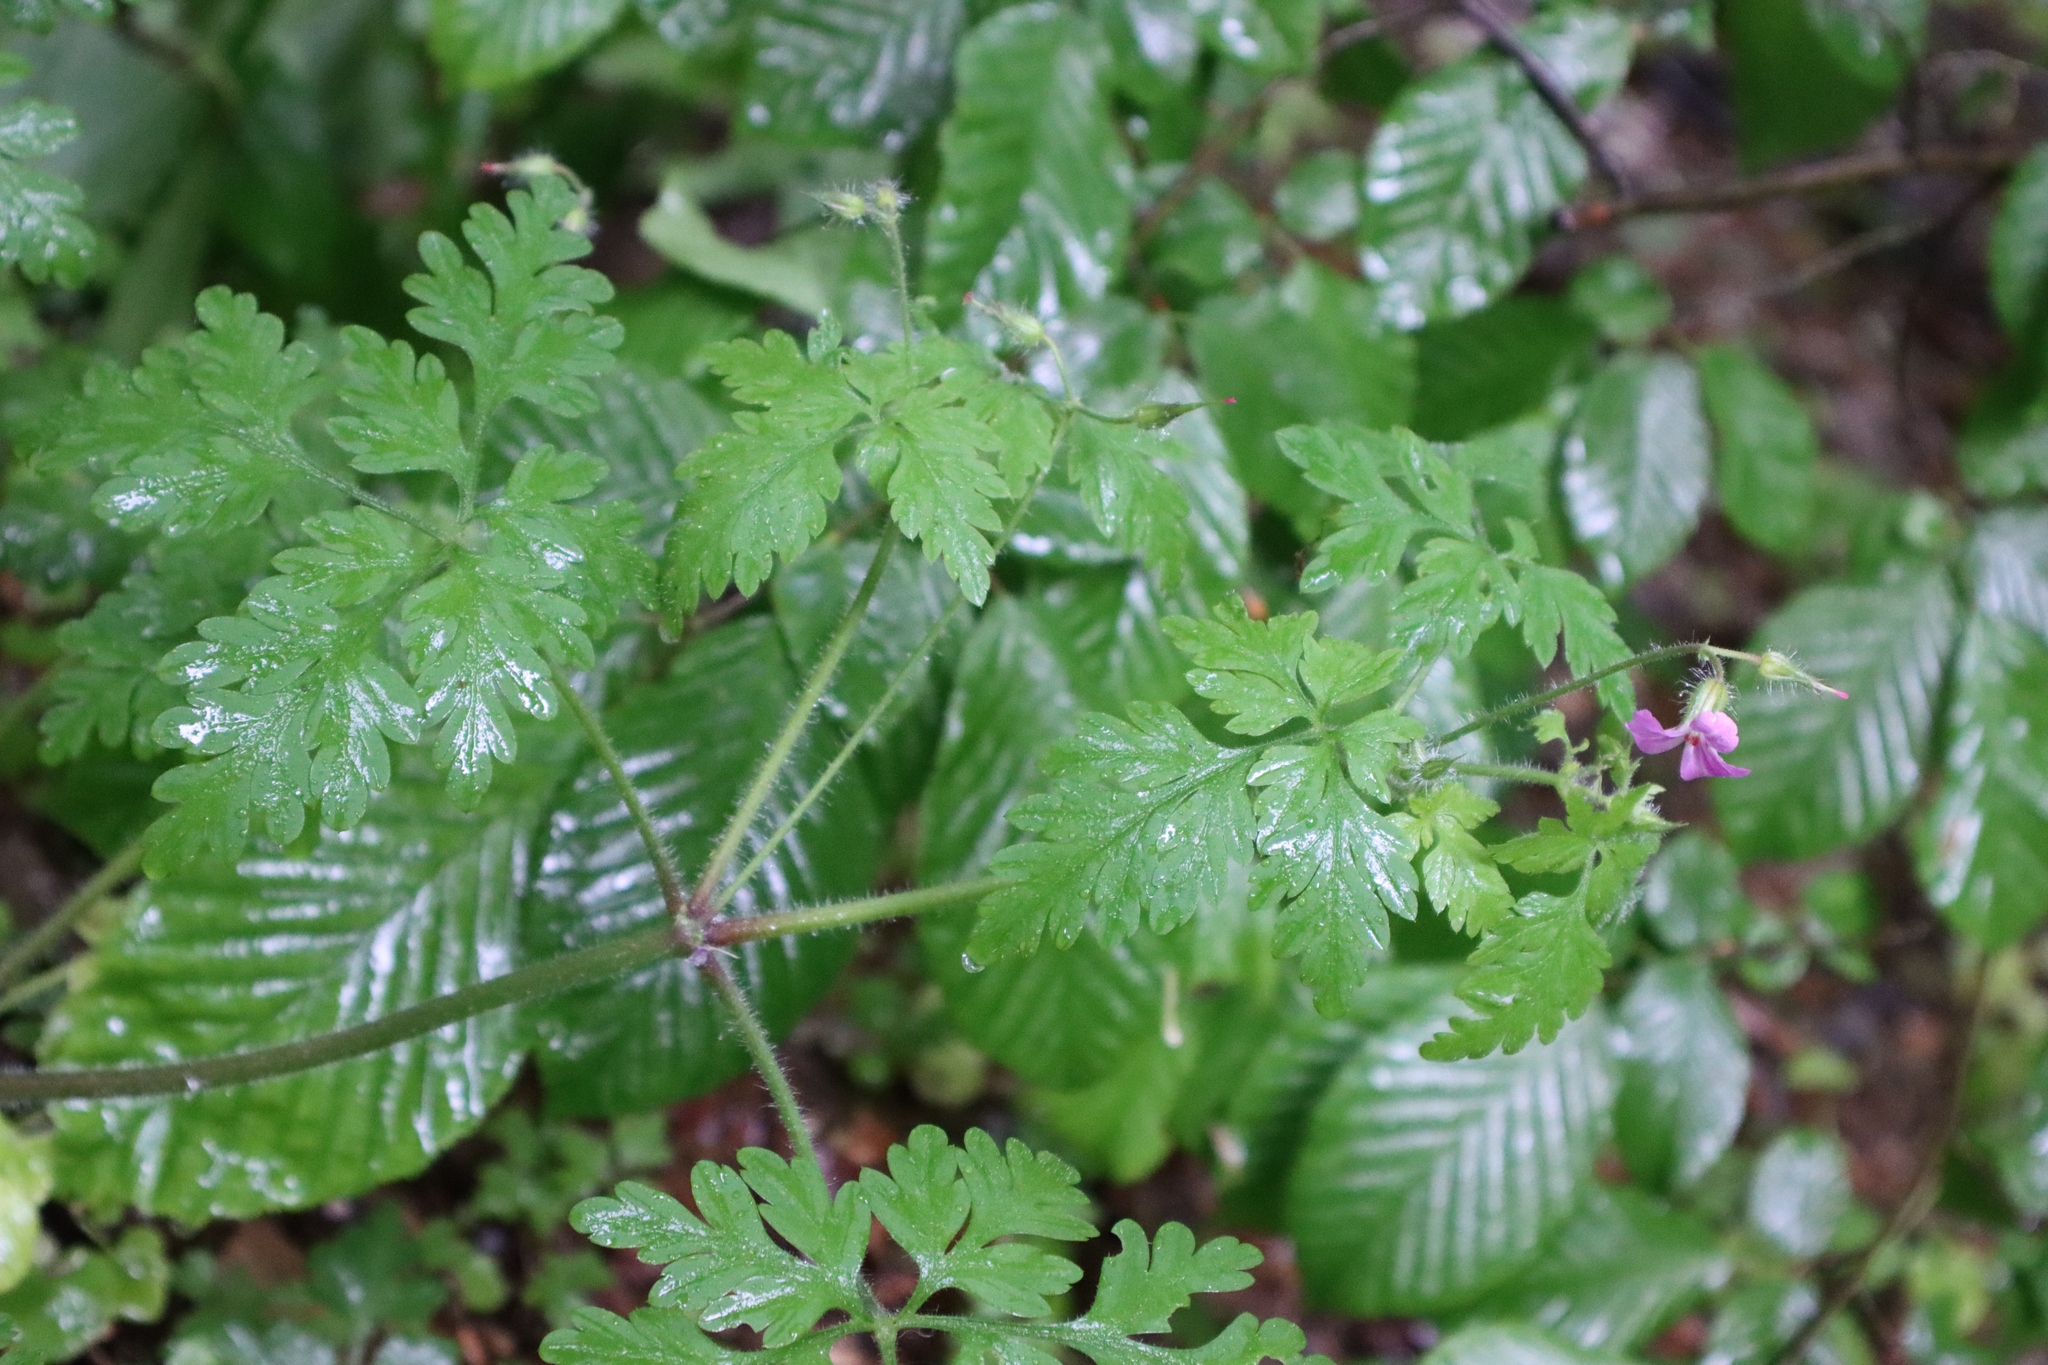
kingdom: Plantae
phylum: Tracheophyta
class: Magnoliopsida
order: Geraniales
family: Geraniaceae
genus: Geranium
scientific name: Geranium robertianum
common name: Herb-robert
